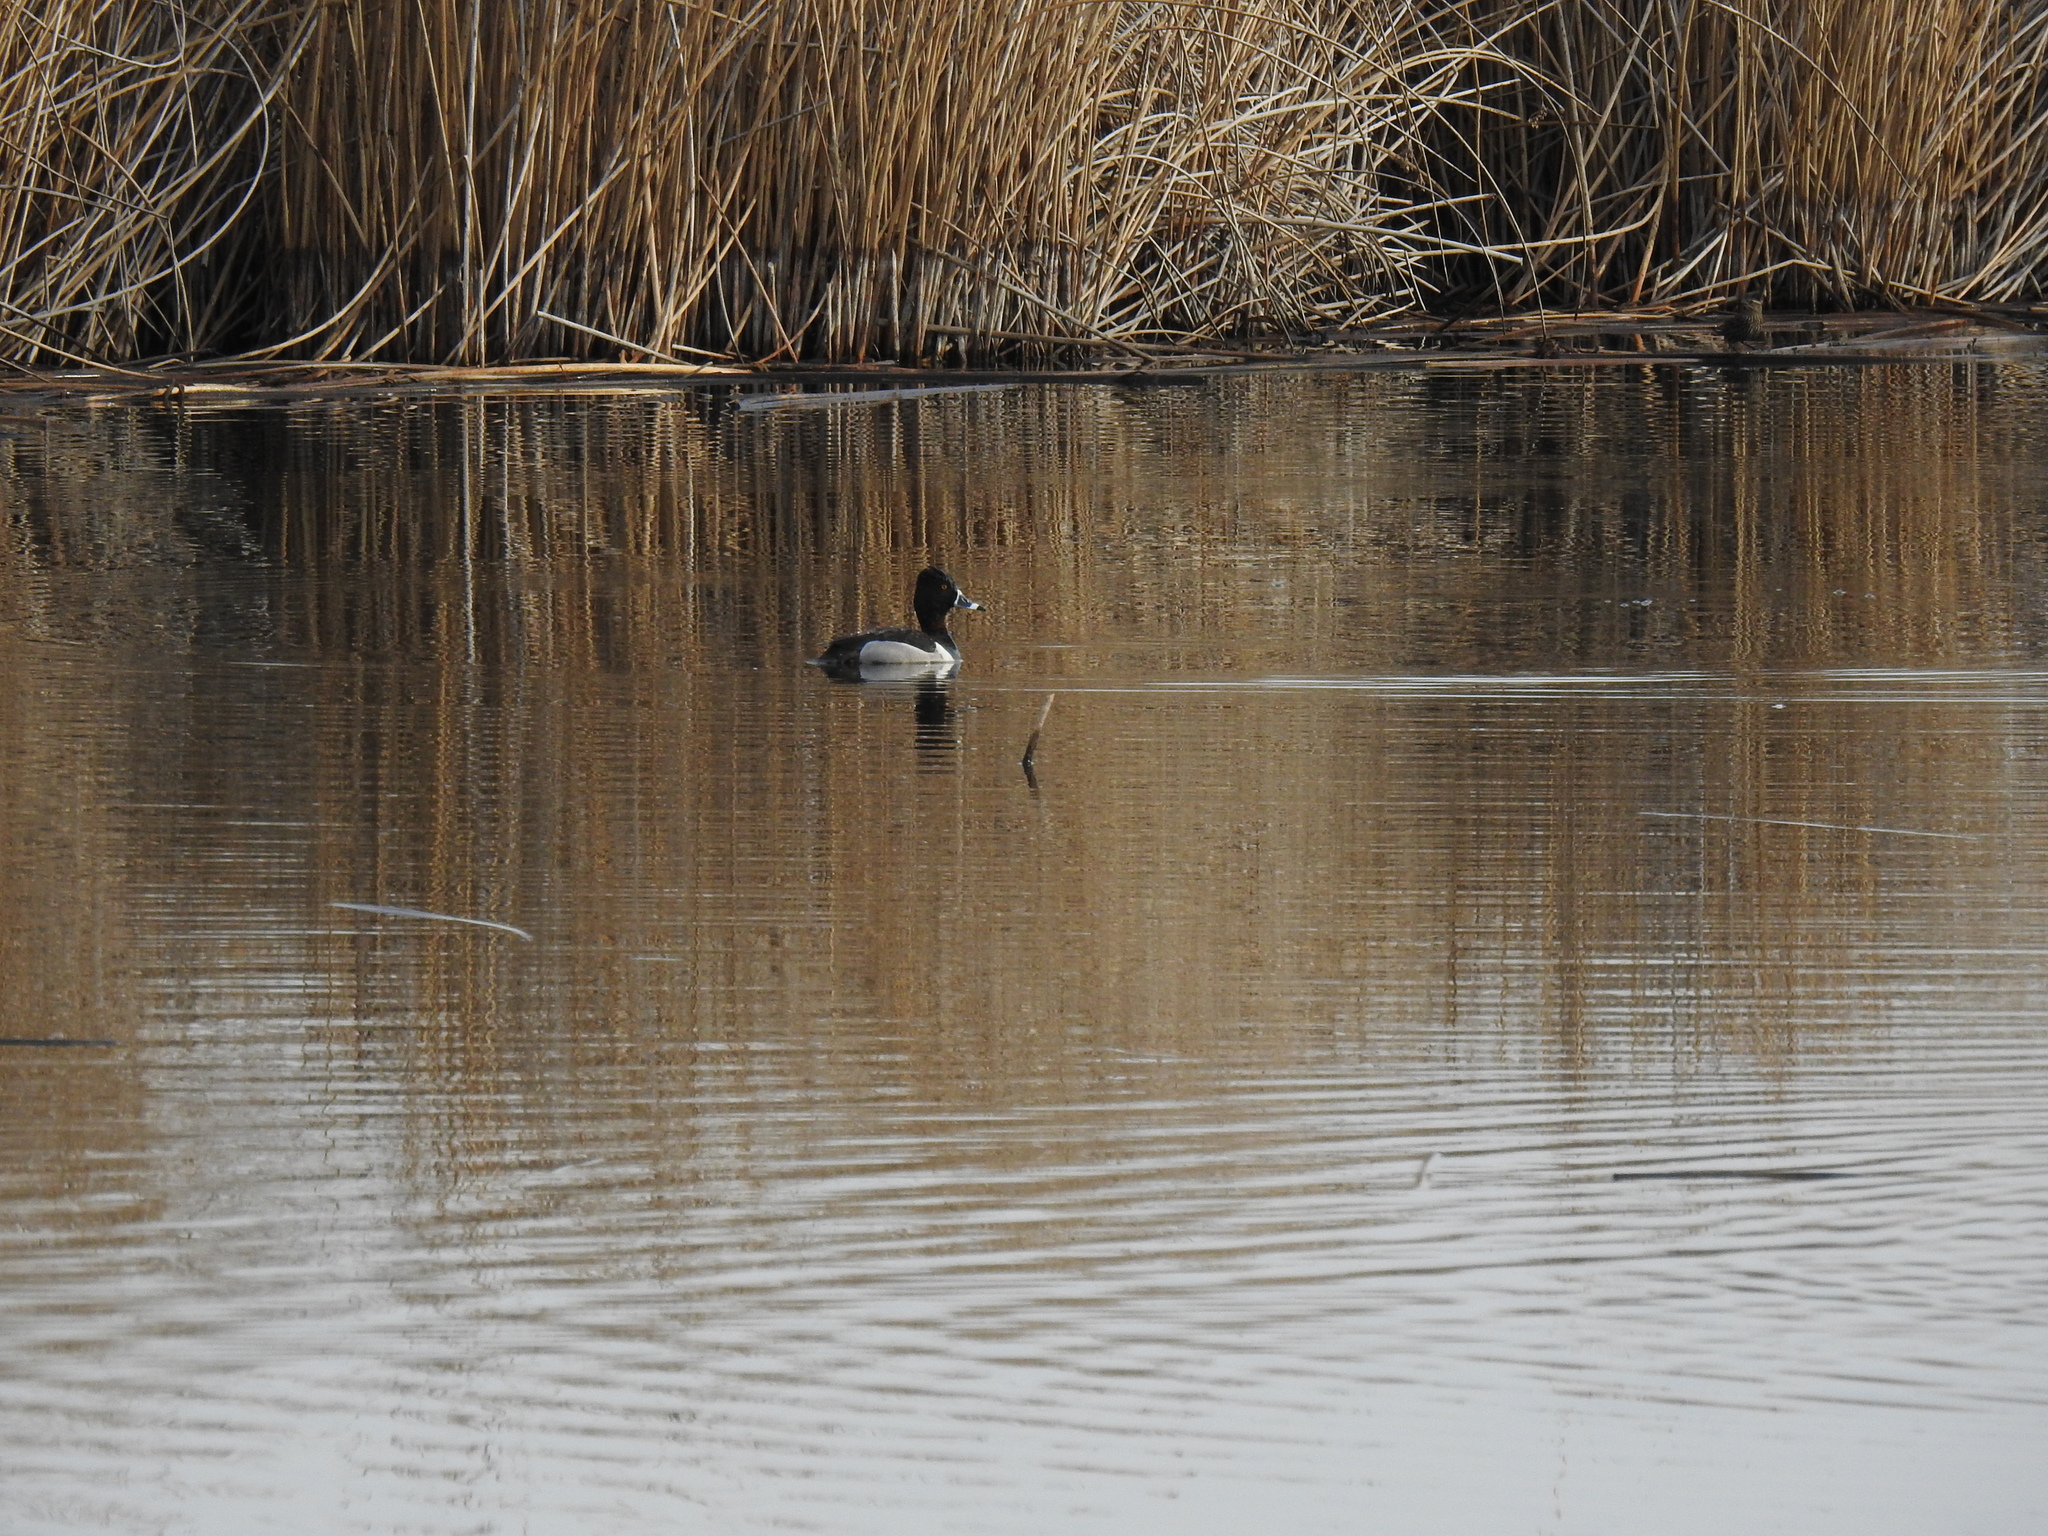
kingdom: Animalia
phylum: Chordata
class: Aves
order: Anseriformes
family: Anatidae
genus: Aythya
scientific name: Aythya collaris
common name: Ring-necked duck
